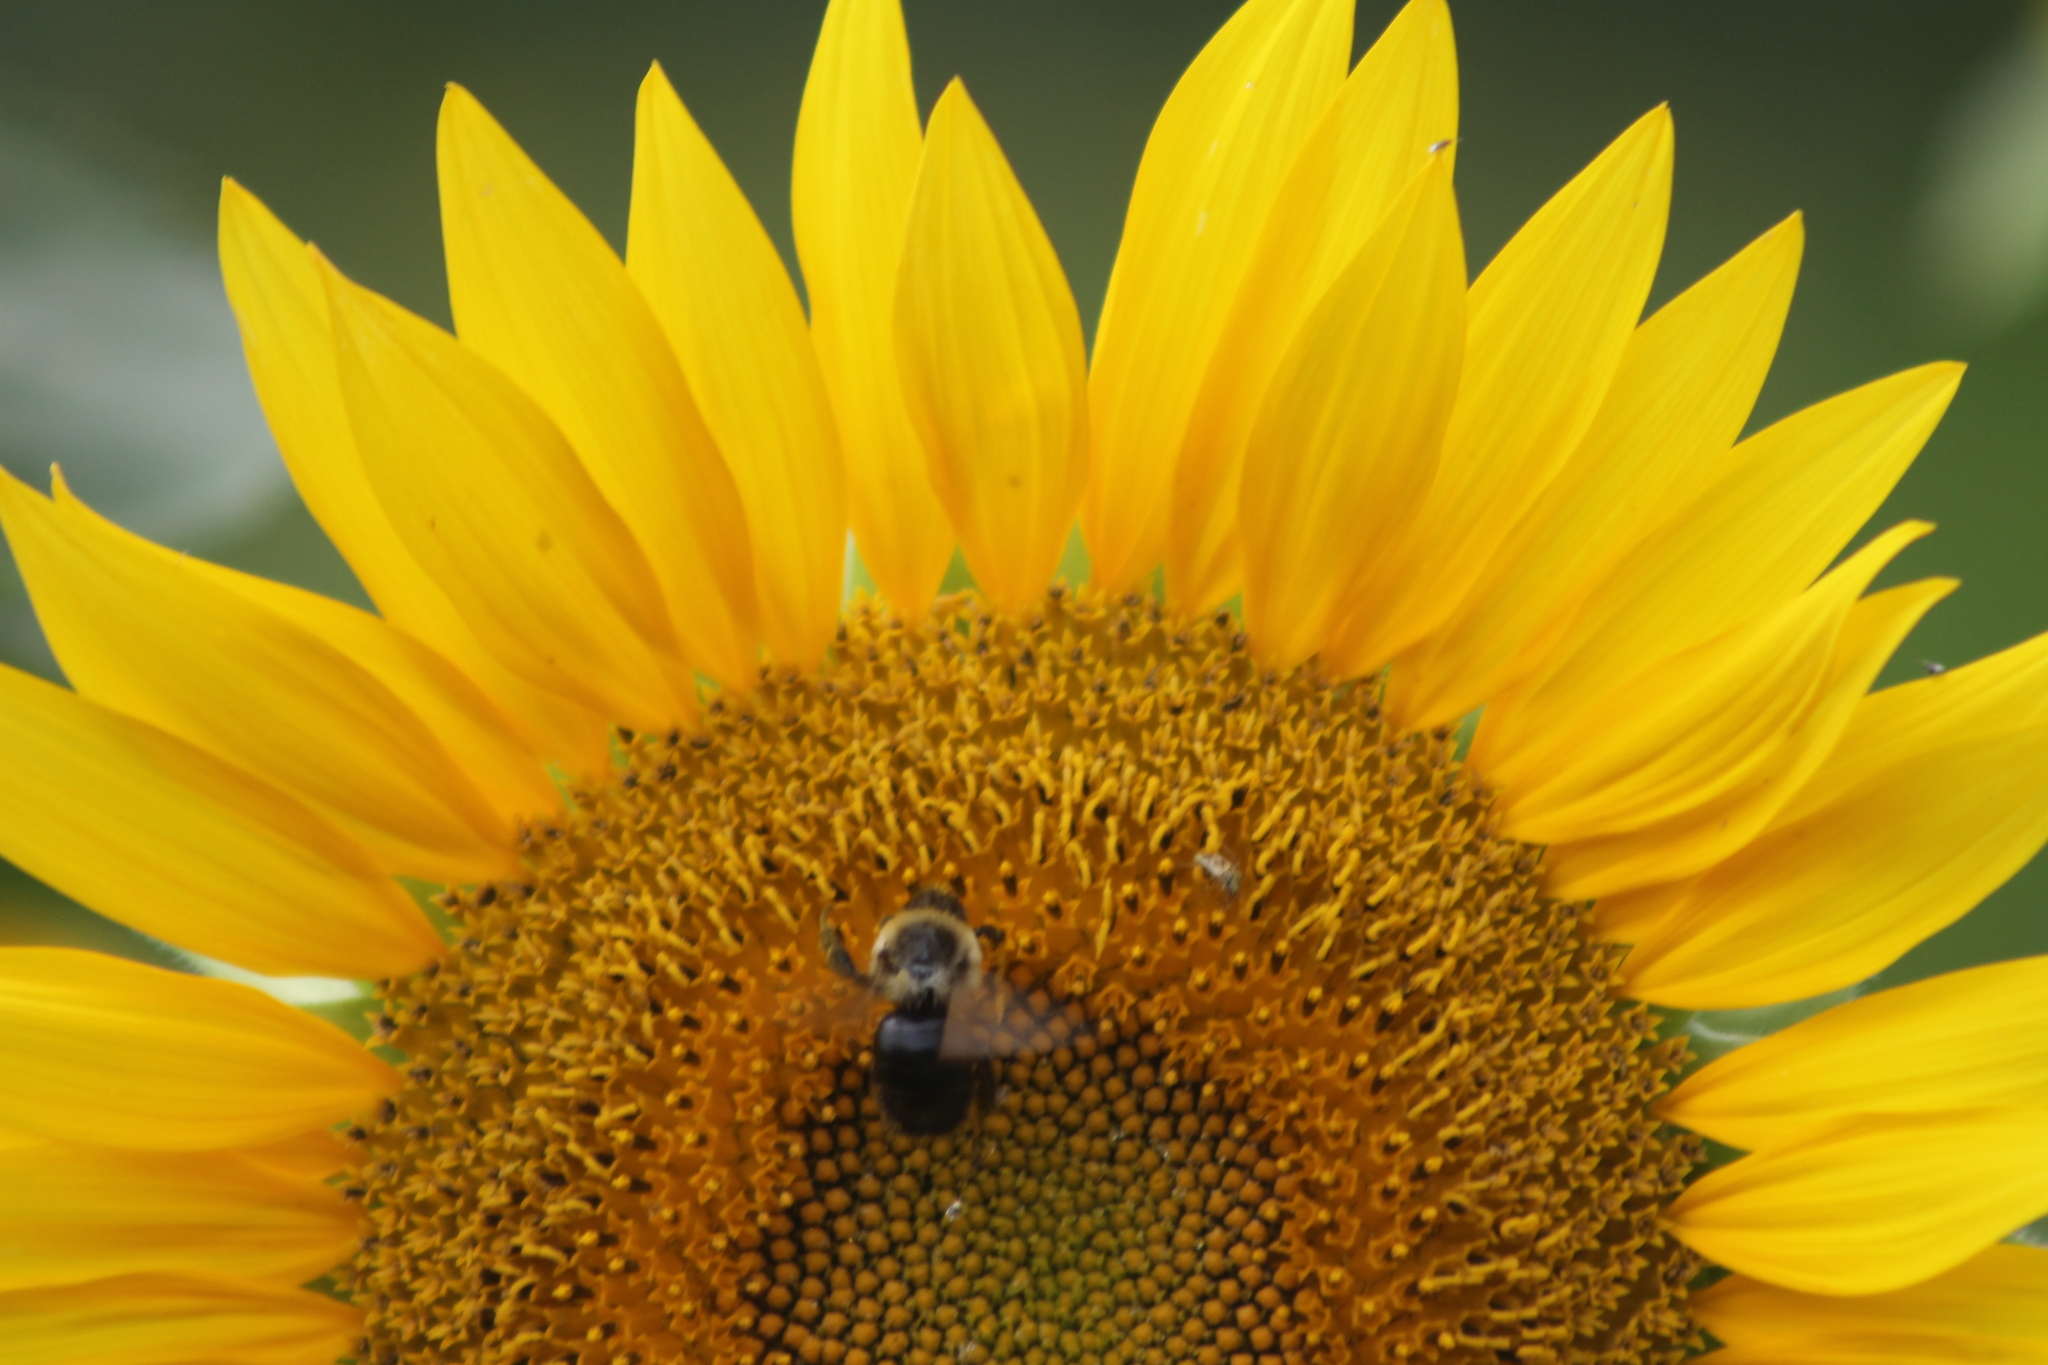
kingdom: Animalia
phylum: Arthropoda
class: Insecta
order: Hymenoptera
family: Apidae
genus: Bombus
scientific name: Bombus impatiens
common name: Common eastern bumble bee
